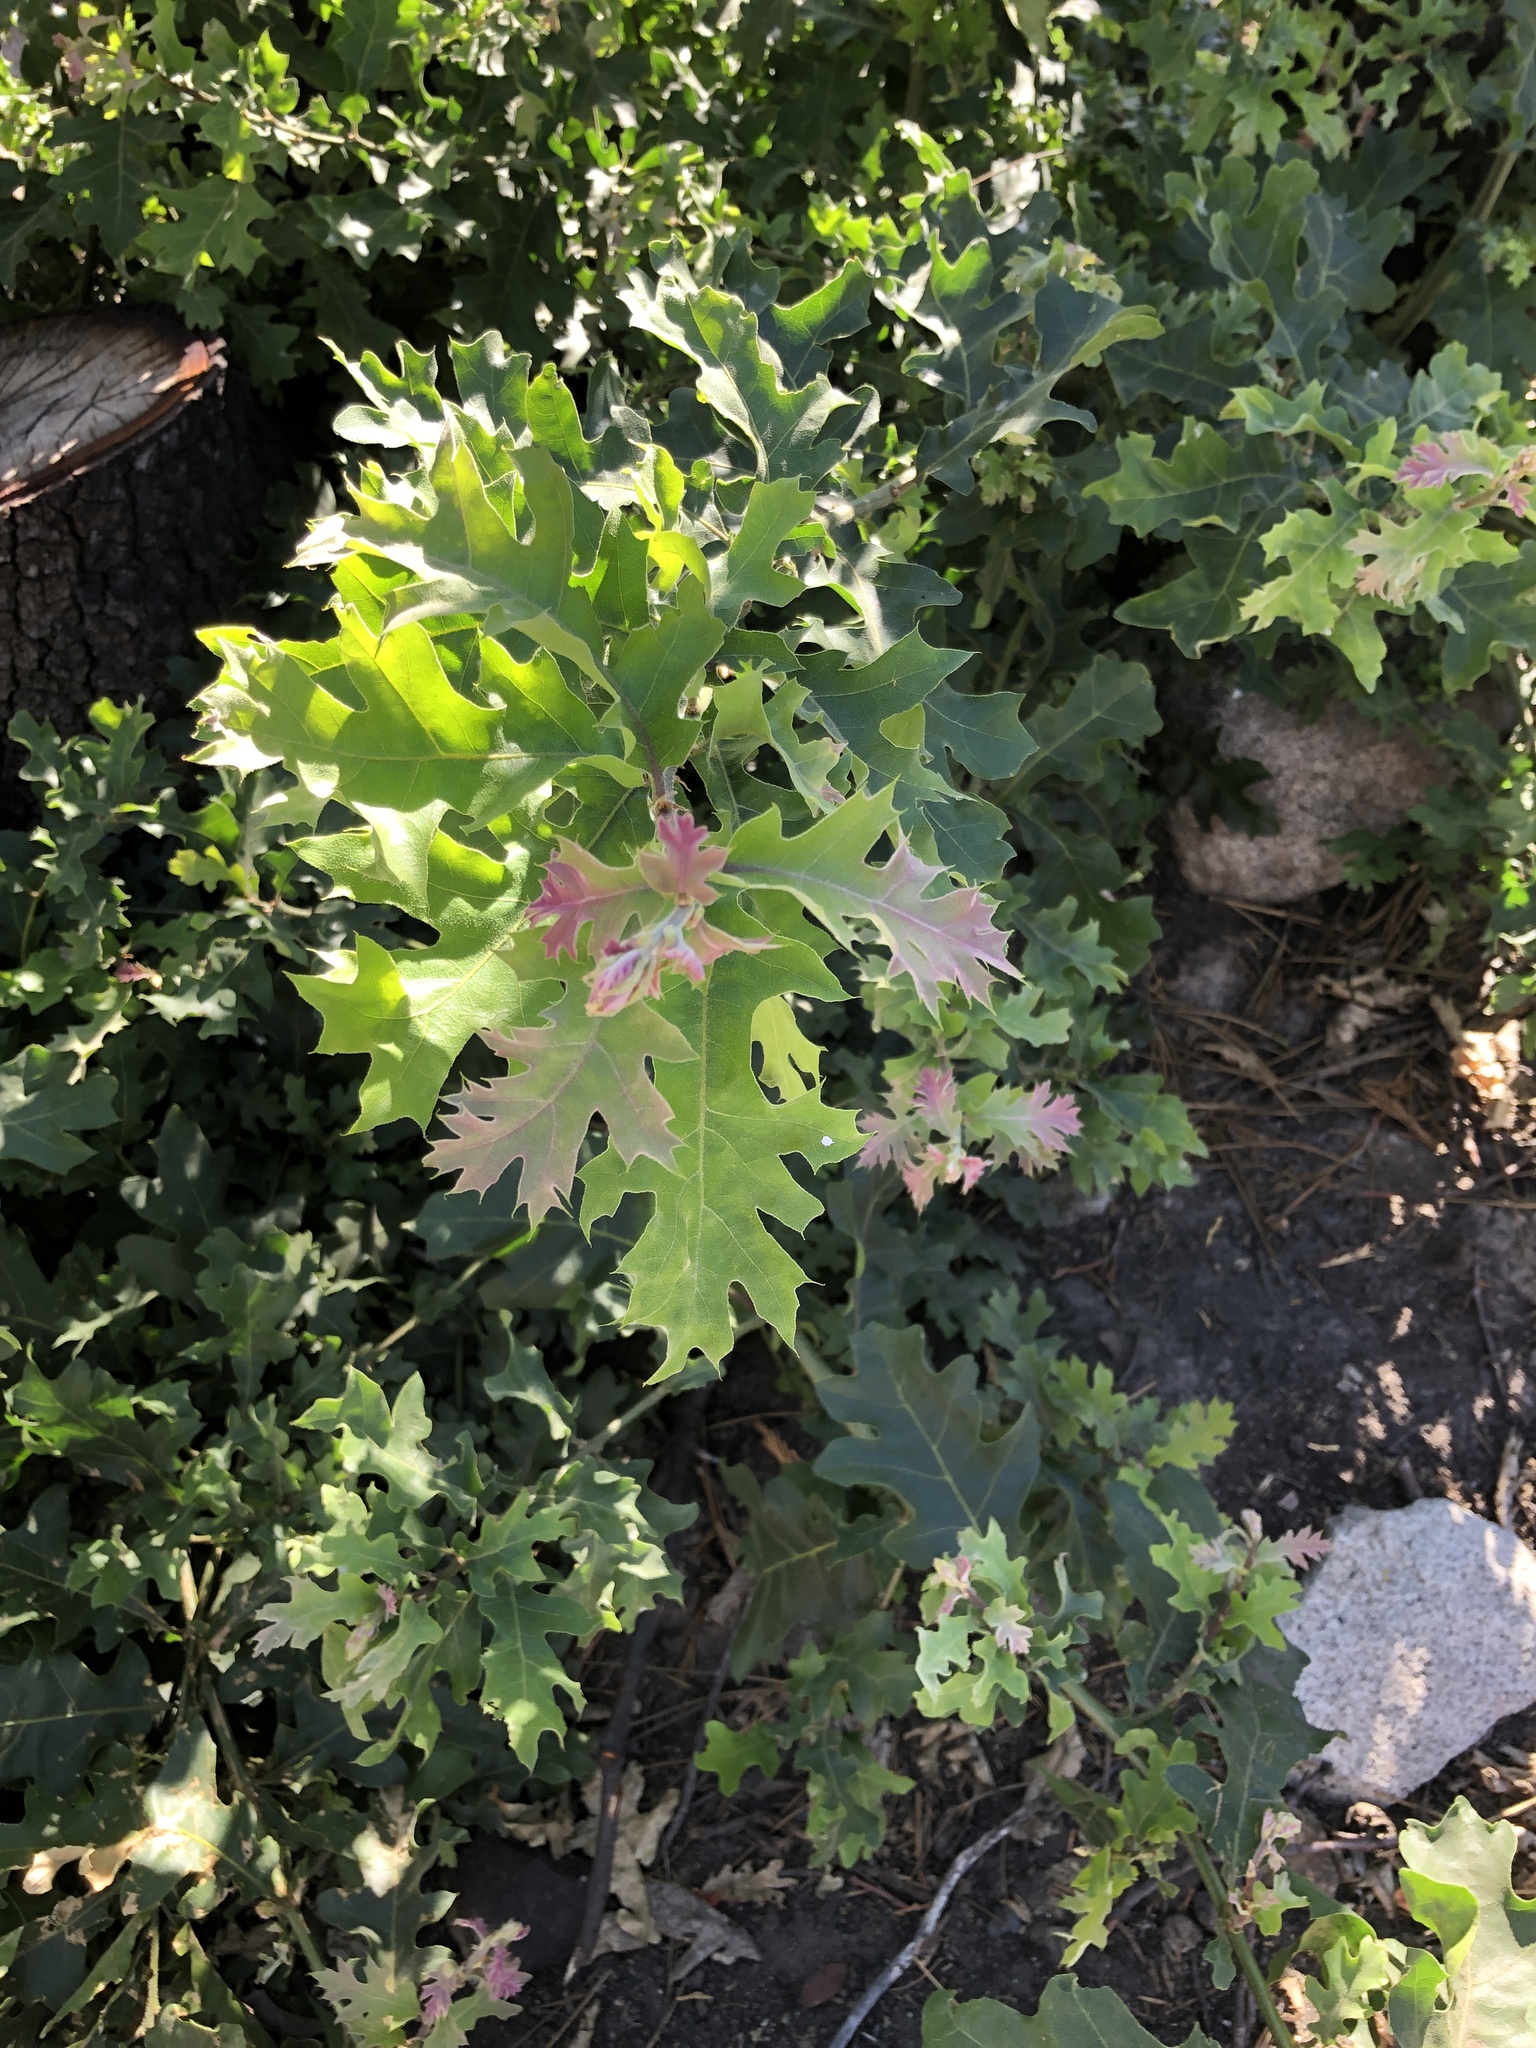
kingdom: Plantae
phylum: Tracheophyta
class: Magnoliopsida
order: Fagales
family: Fagaceae
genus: Quercus
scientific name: Quercus kelloggii
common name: California black oak
